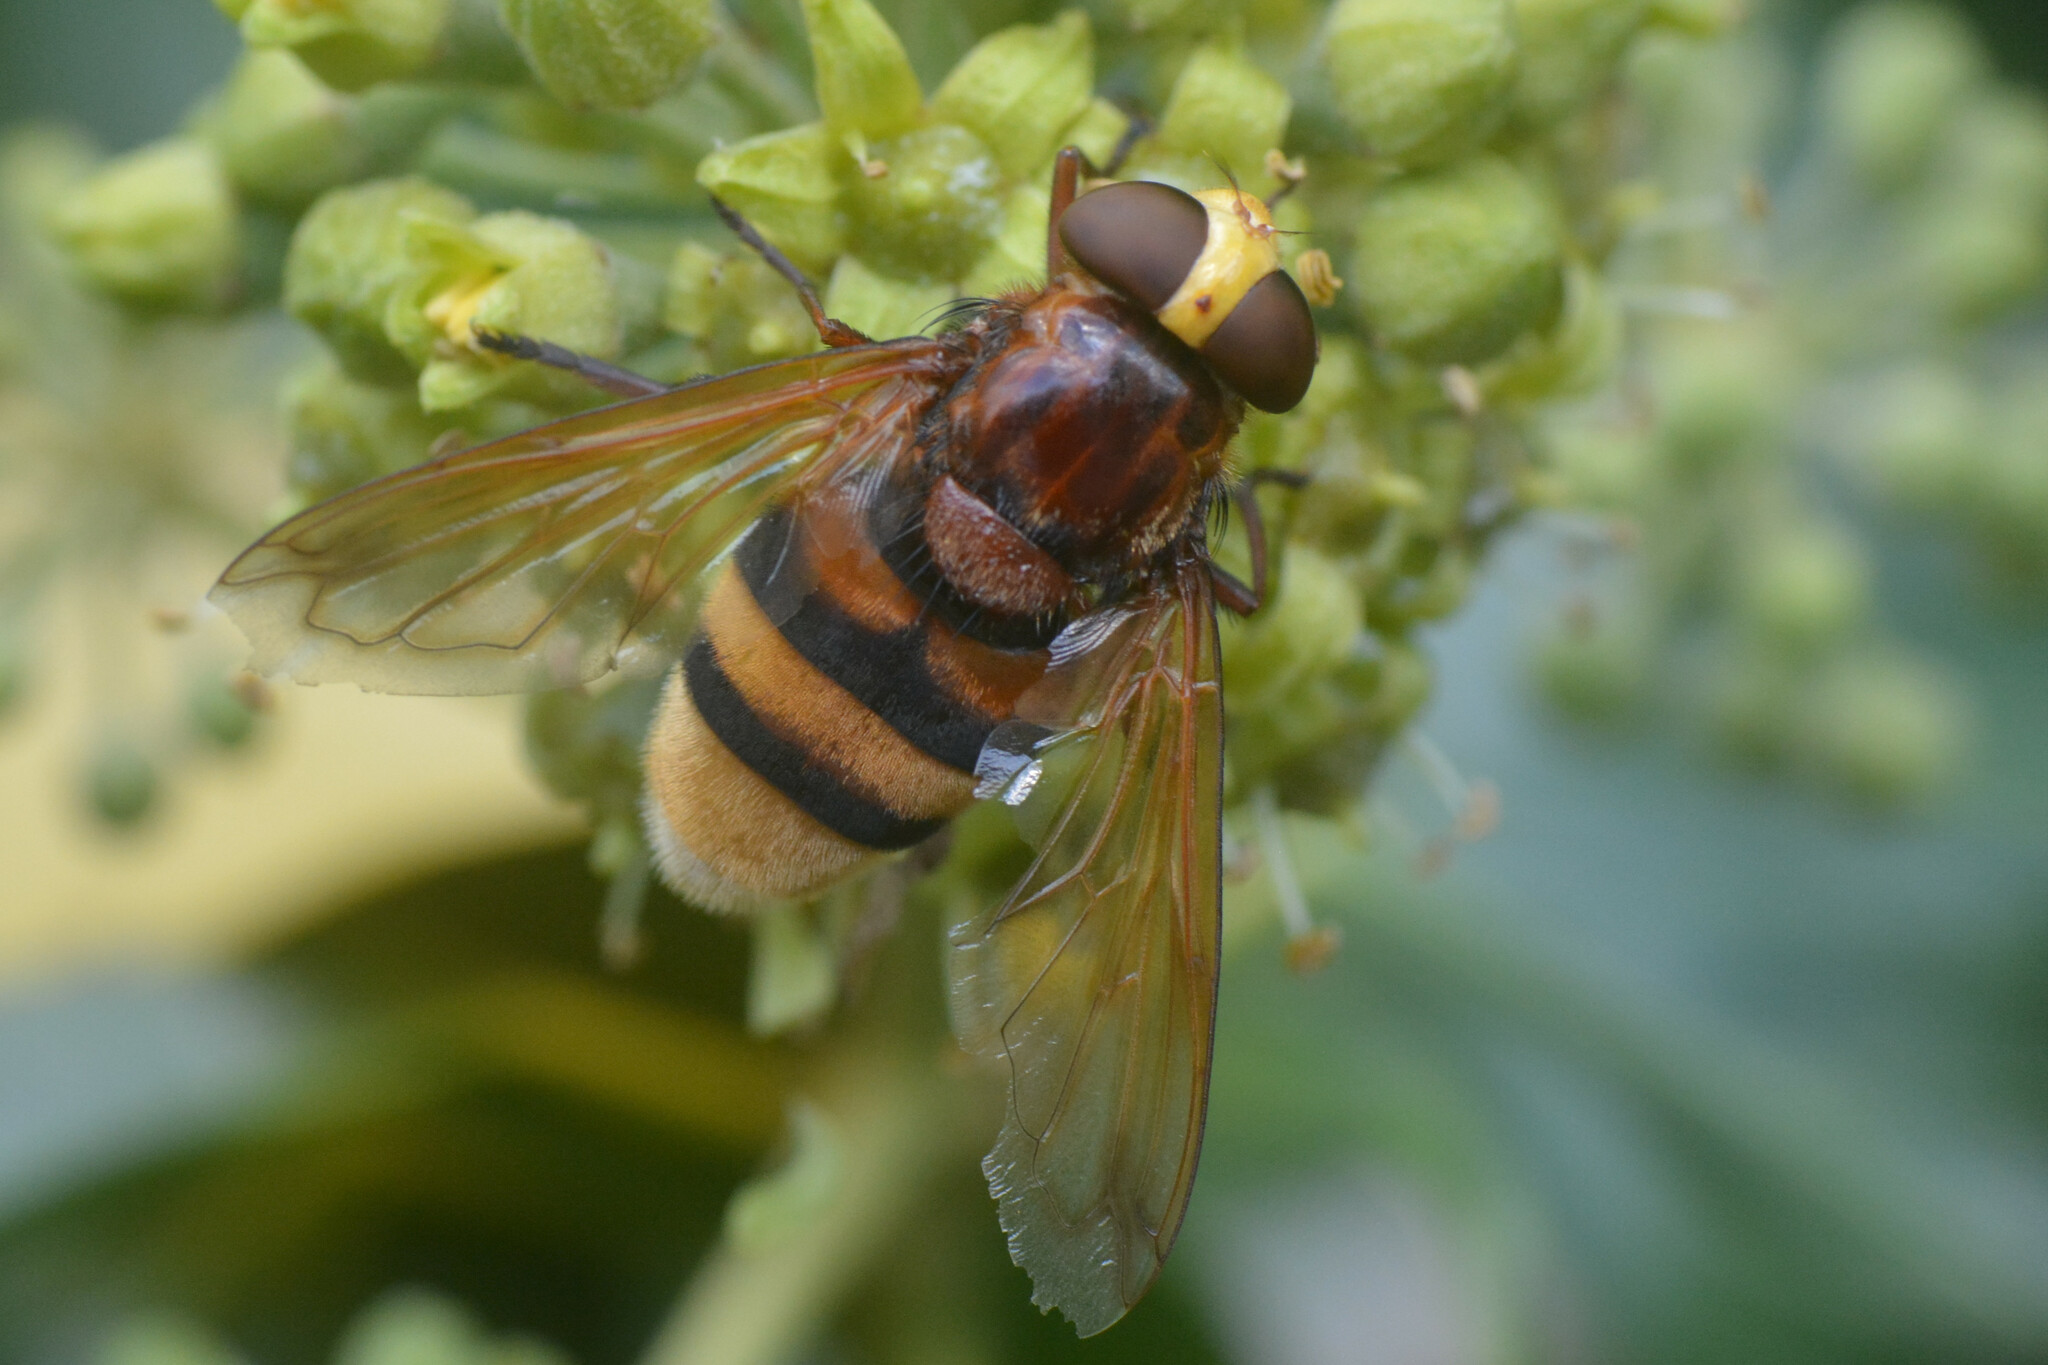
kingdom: Animalia
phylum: Arthropoda
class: Insecta
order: Diptera
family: Syrphidae
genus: Volucella
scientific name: Volucella zonaria
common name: Hornet hoverfly
